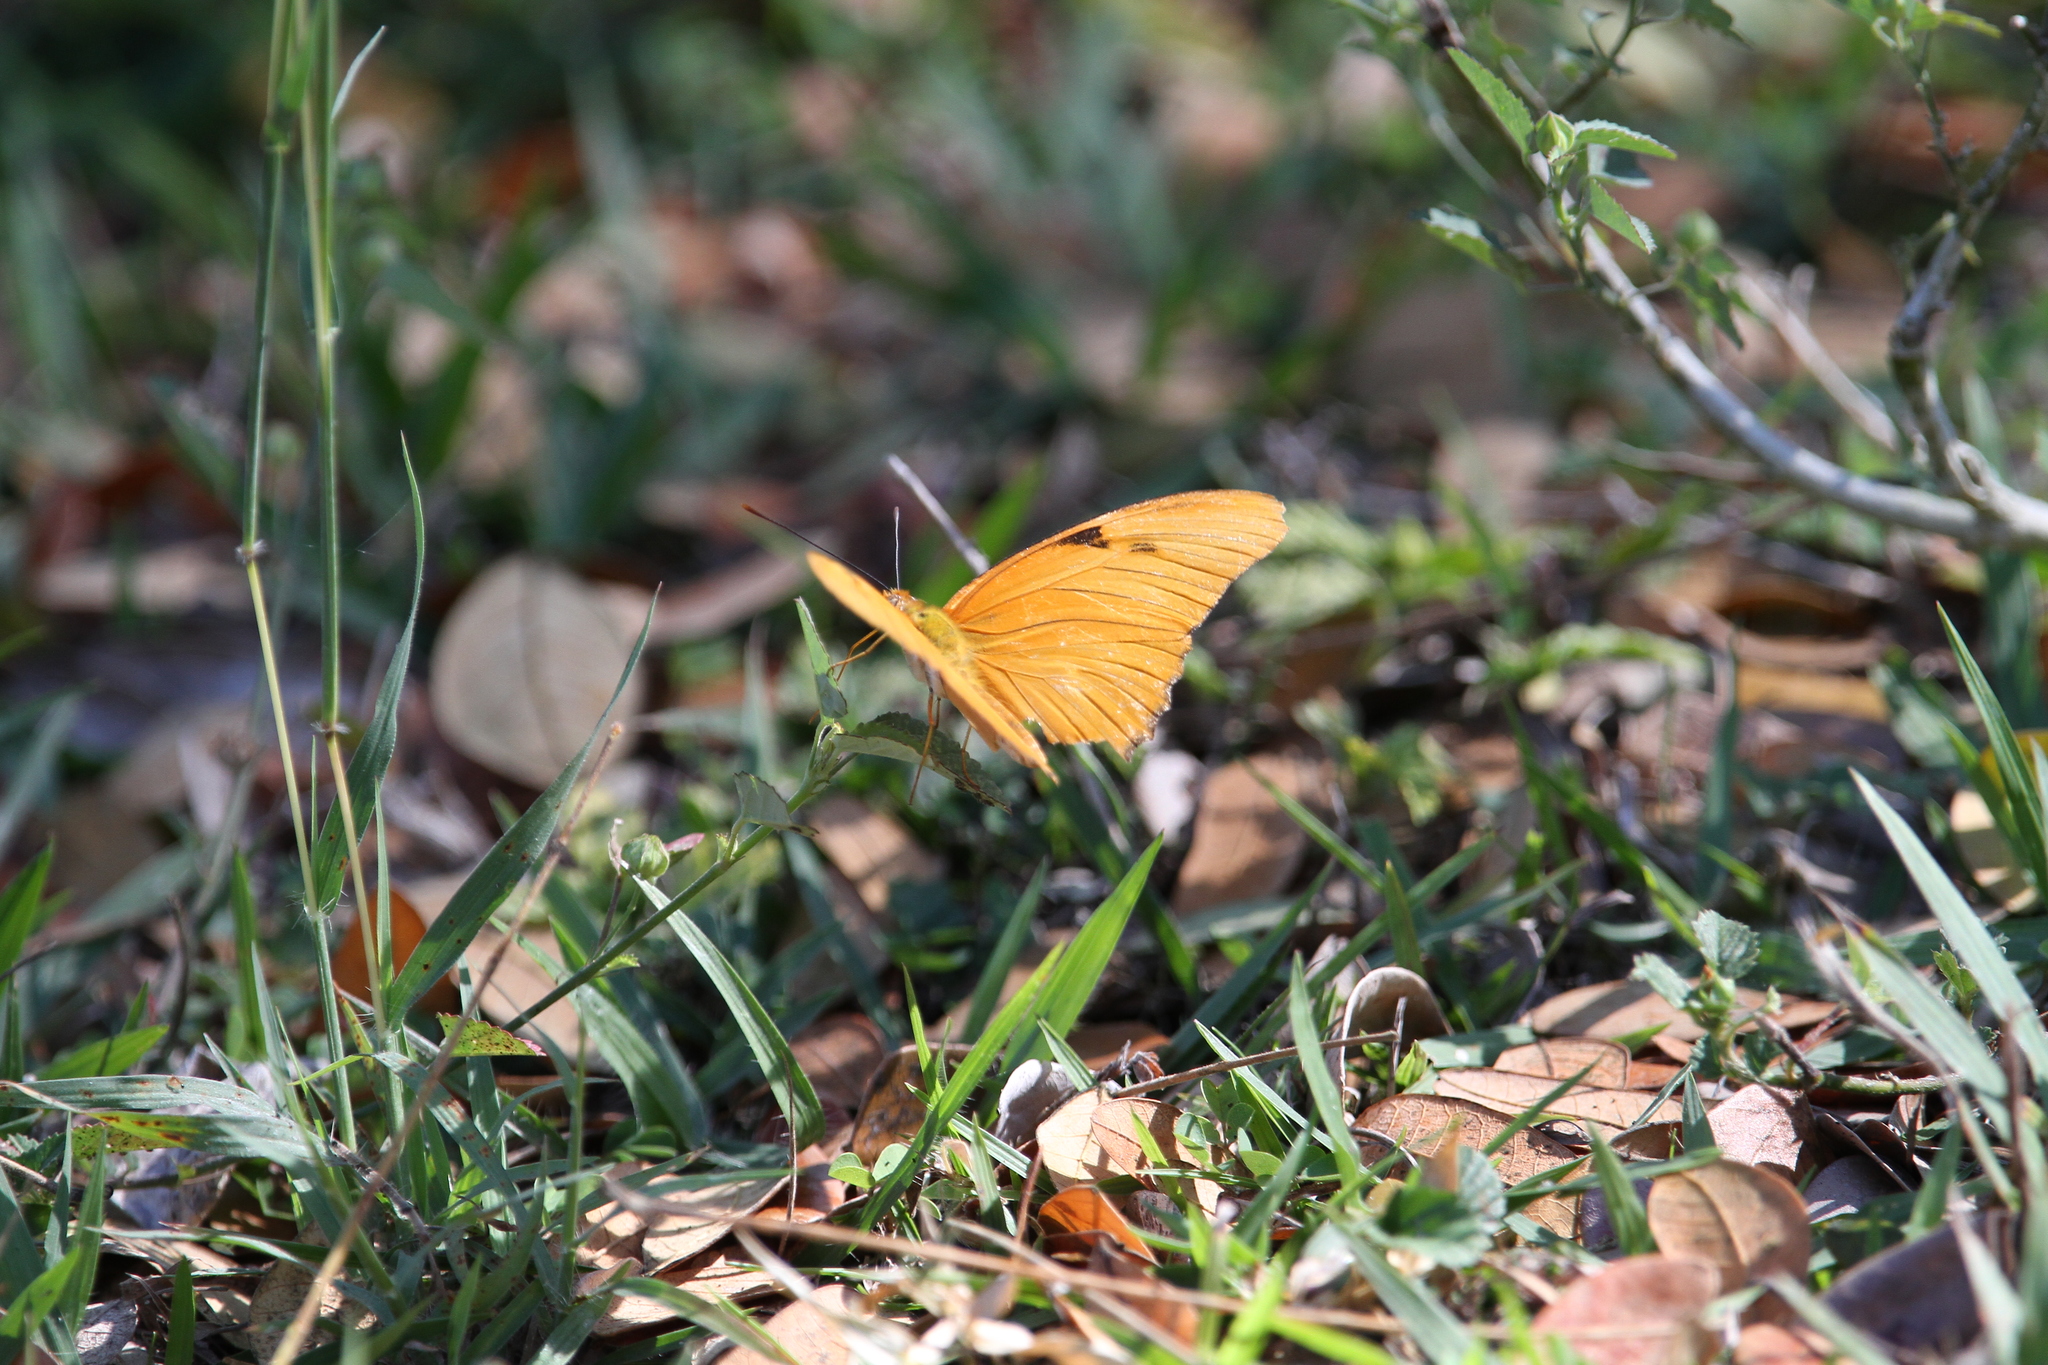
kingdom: Animalia
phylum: Arthropoda
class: Insecta
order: Lepidoptera
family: Nymphalidae
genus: Dryas
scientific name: Dryas iulia
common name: Flambeau
